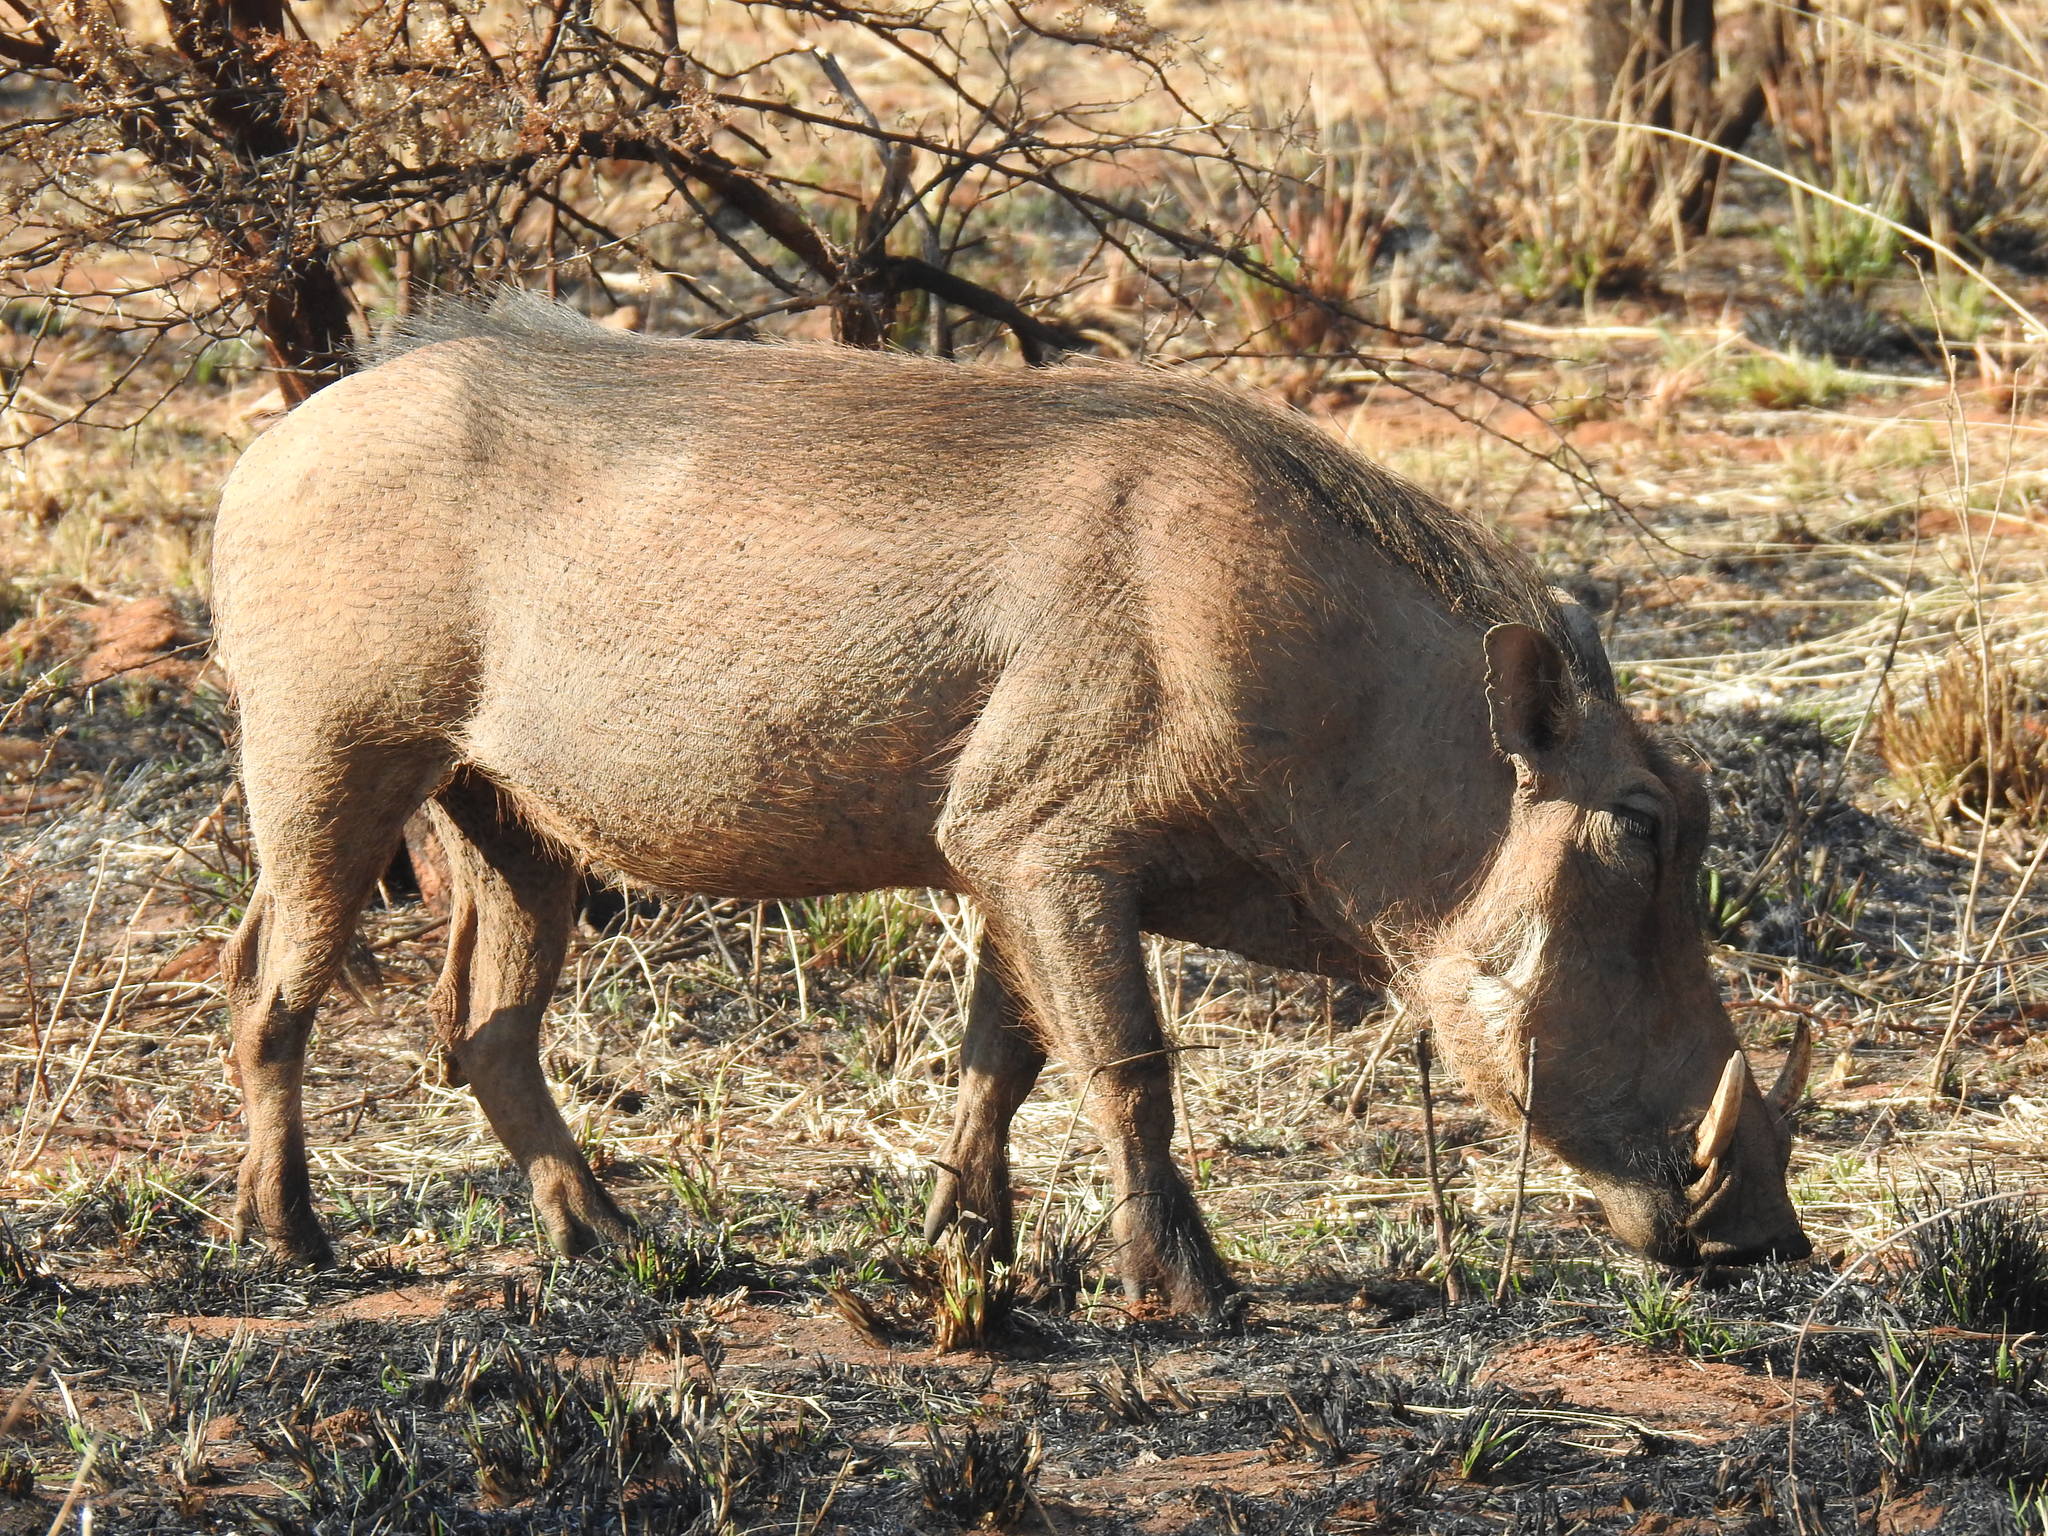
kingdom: Animalia
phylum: Chordata
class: Mammalia
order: Artiodactyla
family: Suidae
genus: Phacochoerus
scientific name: Phacochoerus africanus
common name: Common warthog
